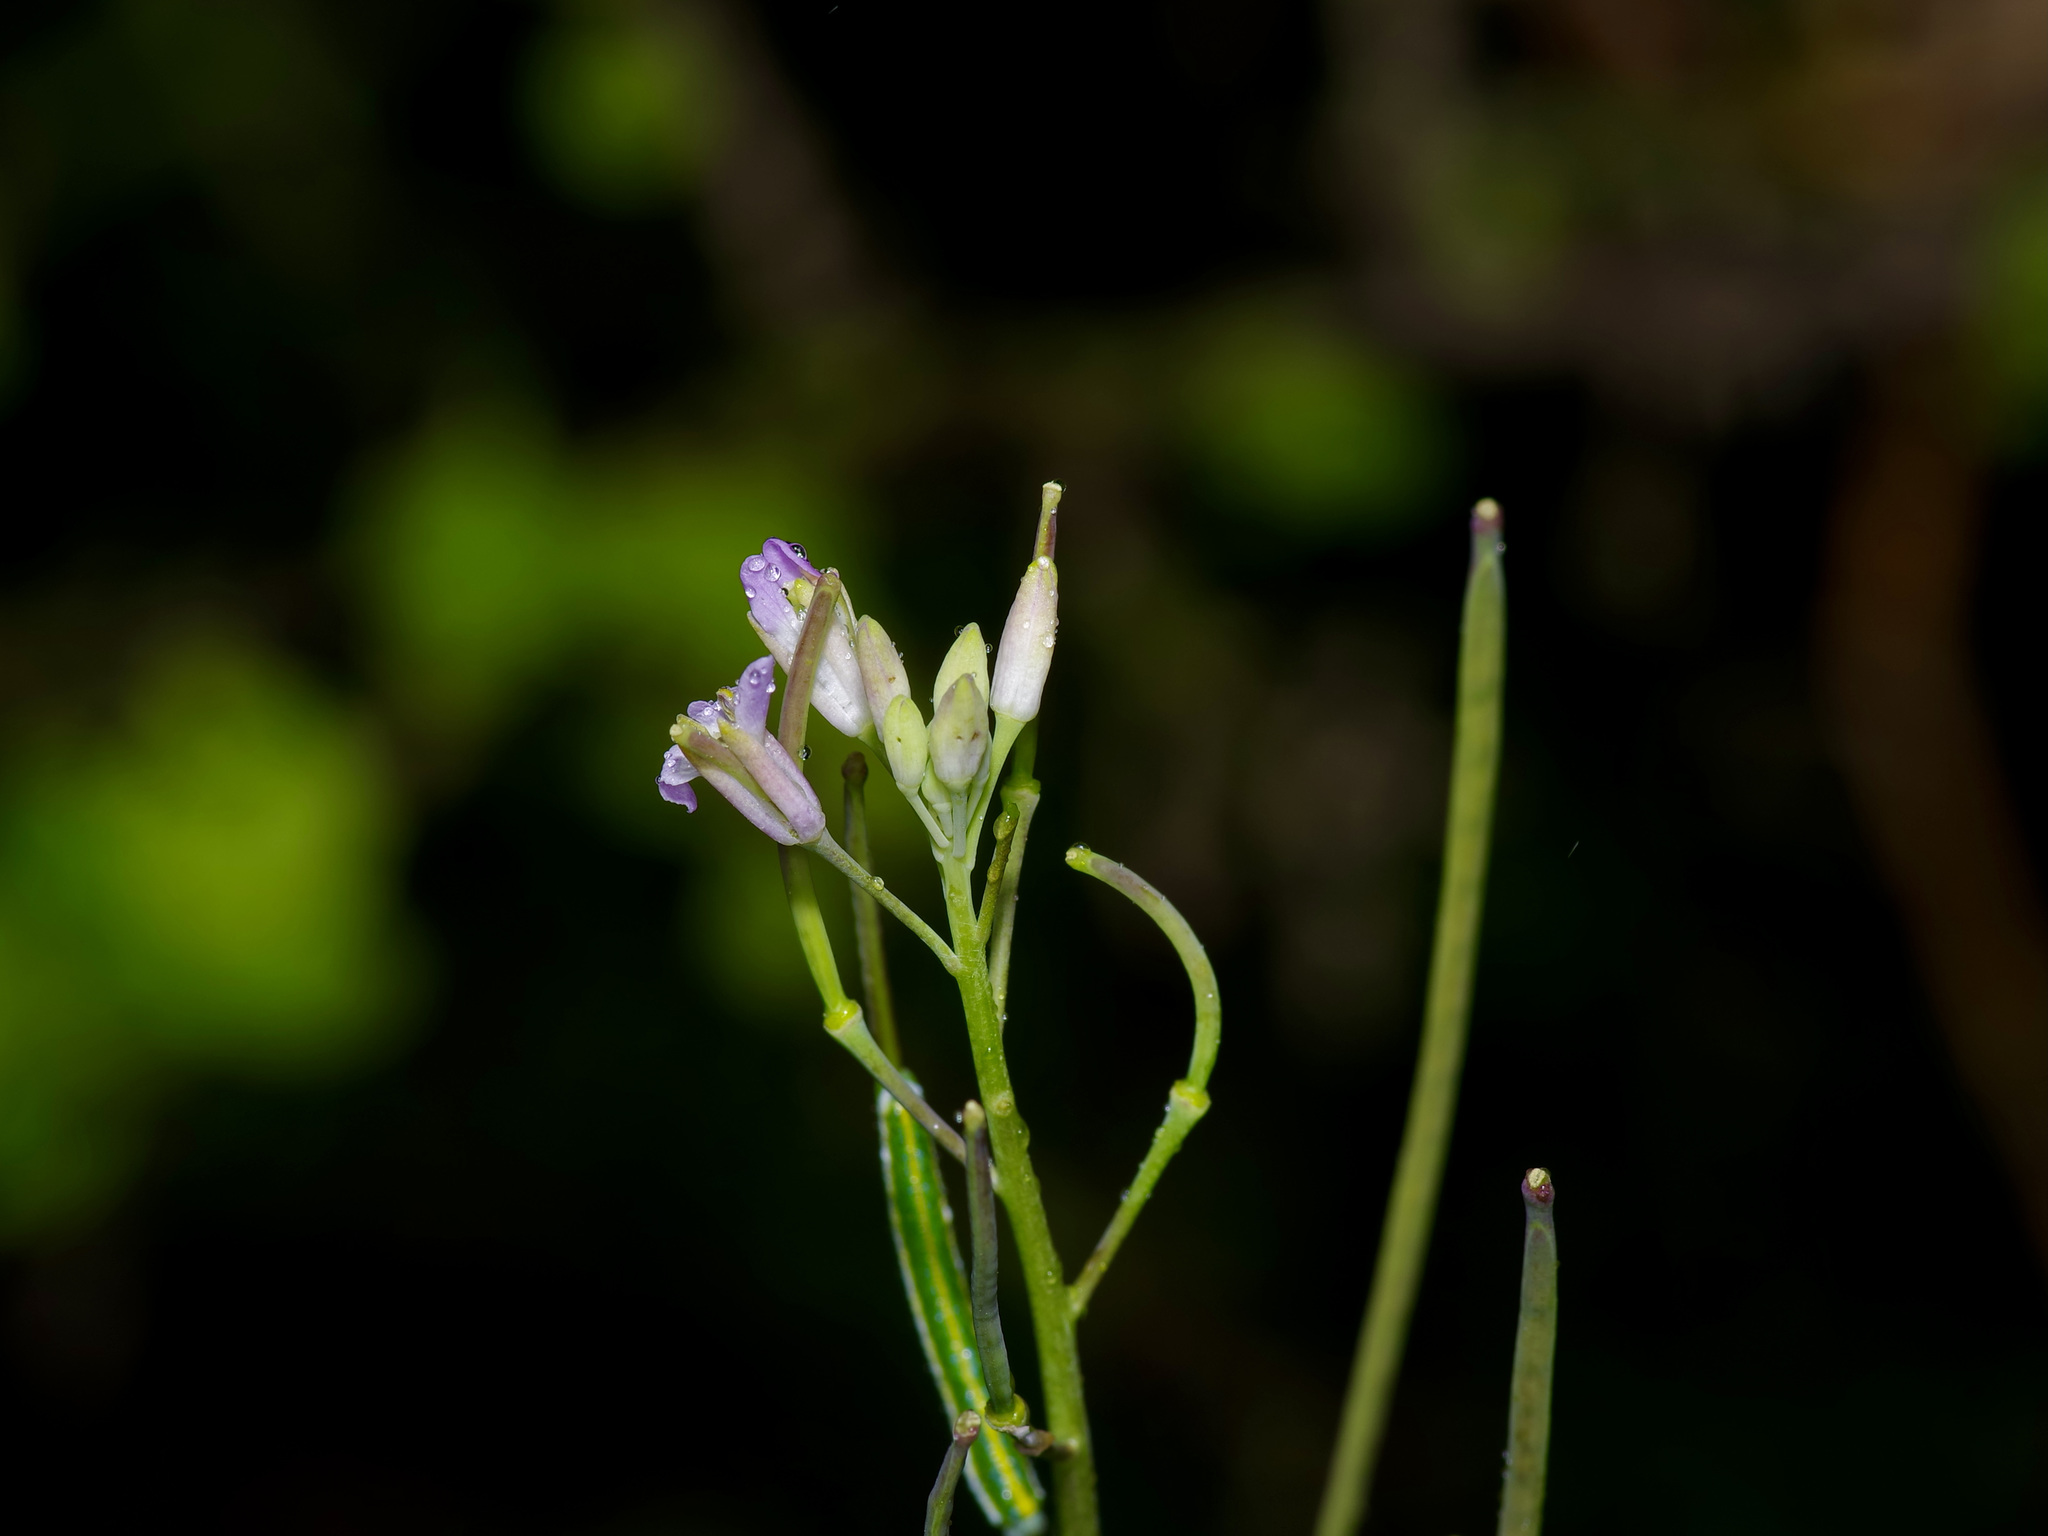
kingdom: Plantae
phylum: Tracheophyta
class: Magnoliopsida
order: Brassicales
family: Brassicaceae
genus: Streptanthus
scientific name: Streptanthus petiolaris
